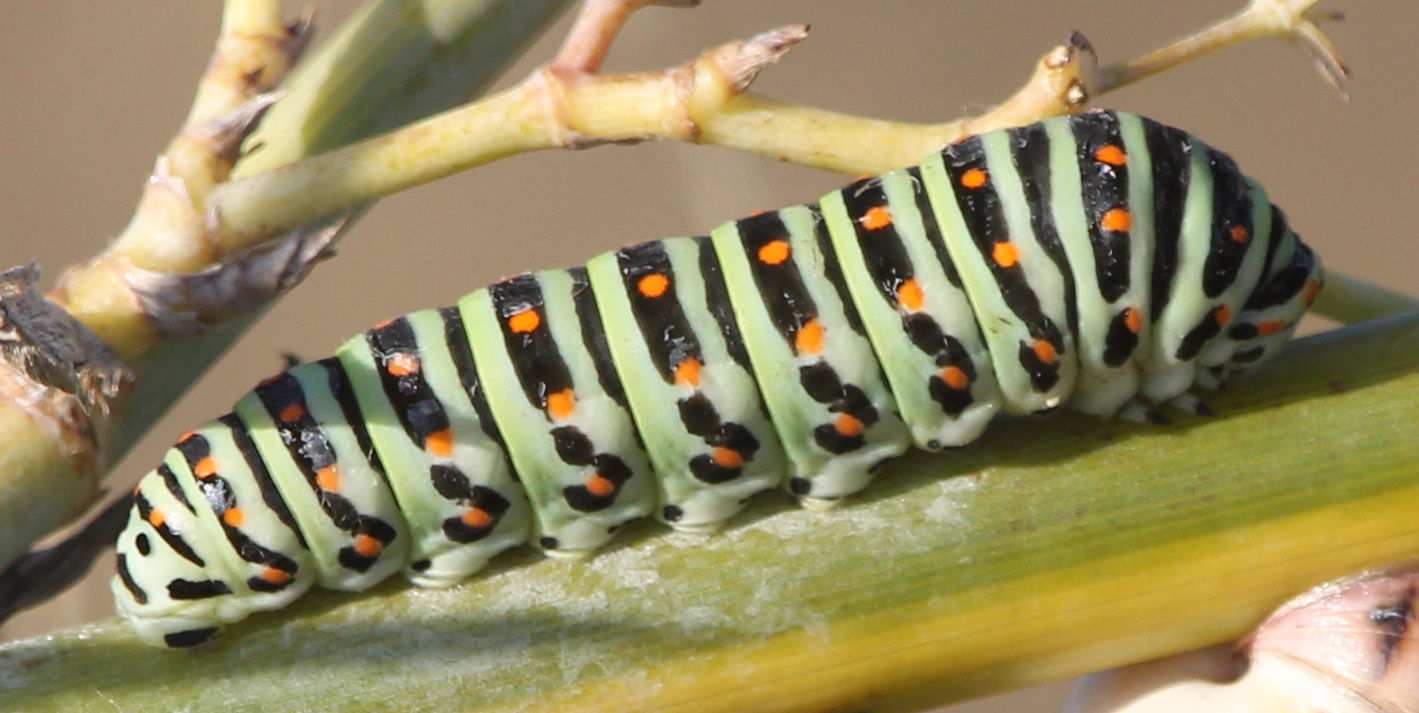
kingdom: Animalia
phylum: Arthropoda
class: Insecta
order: Lepidoptera
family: Papilionidae
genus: Papilio
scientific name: Papilio machaon
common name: Swallowtail
